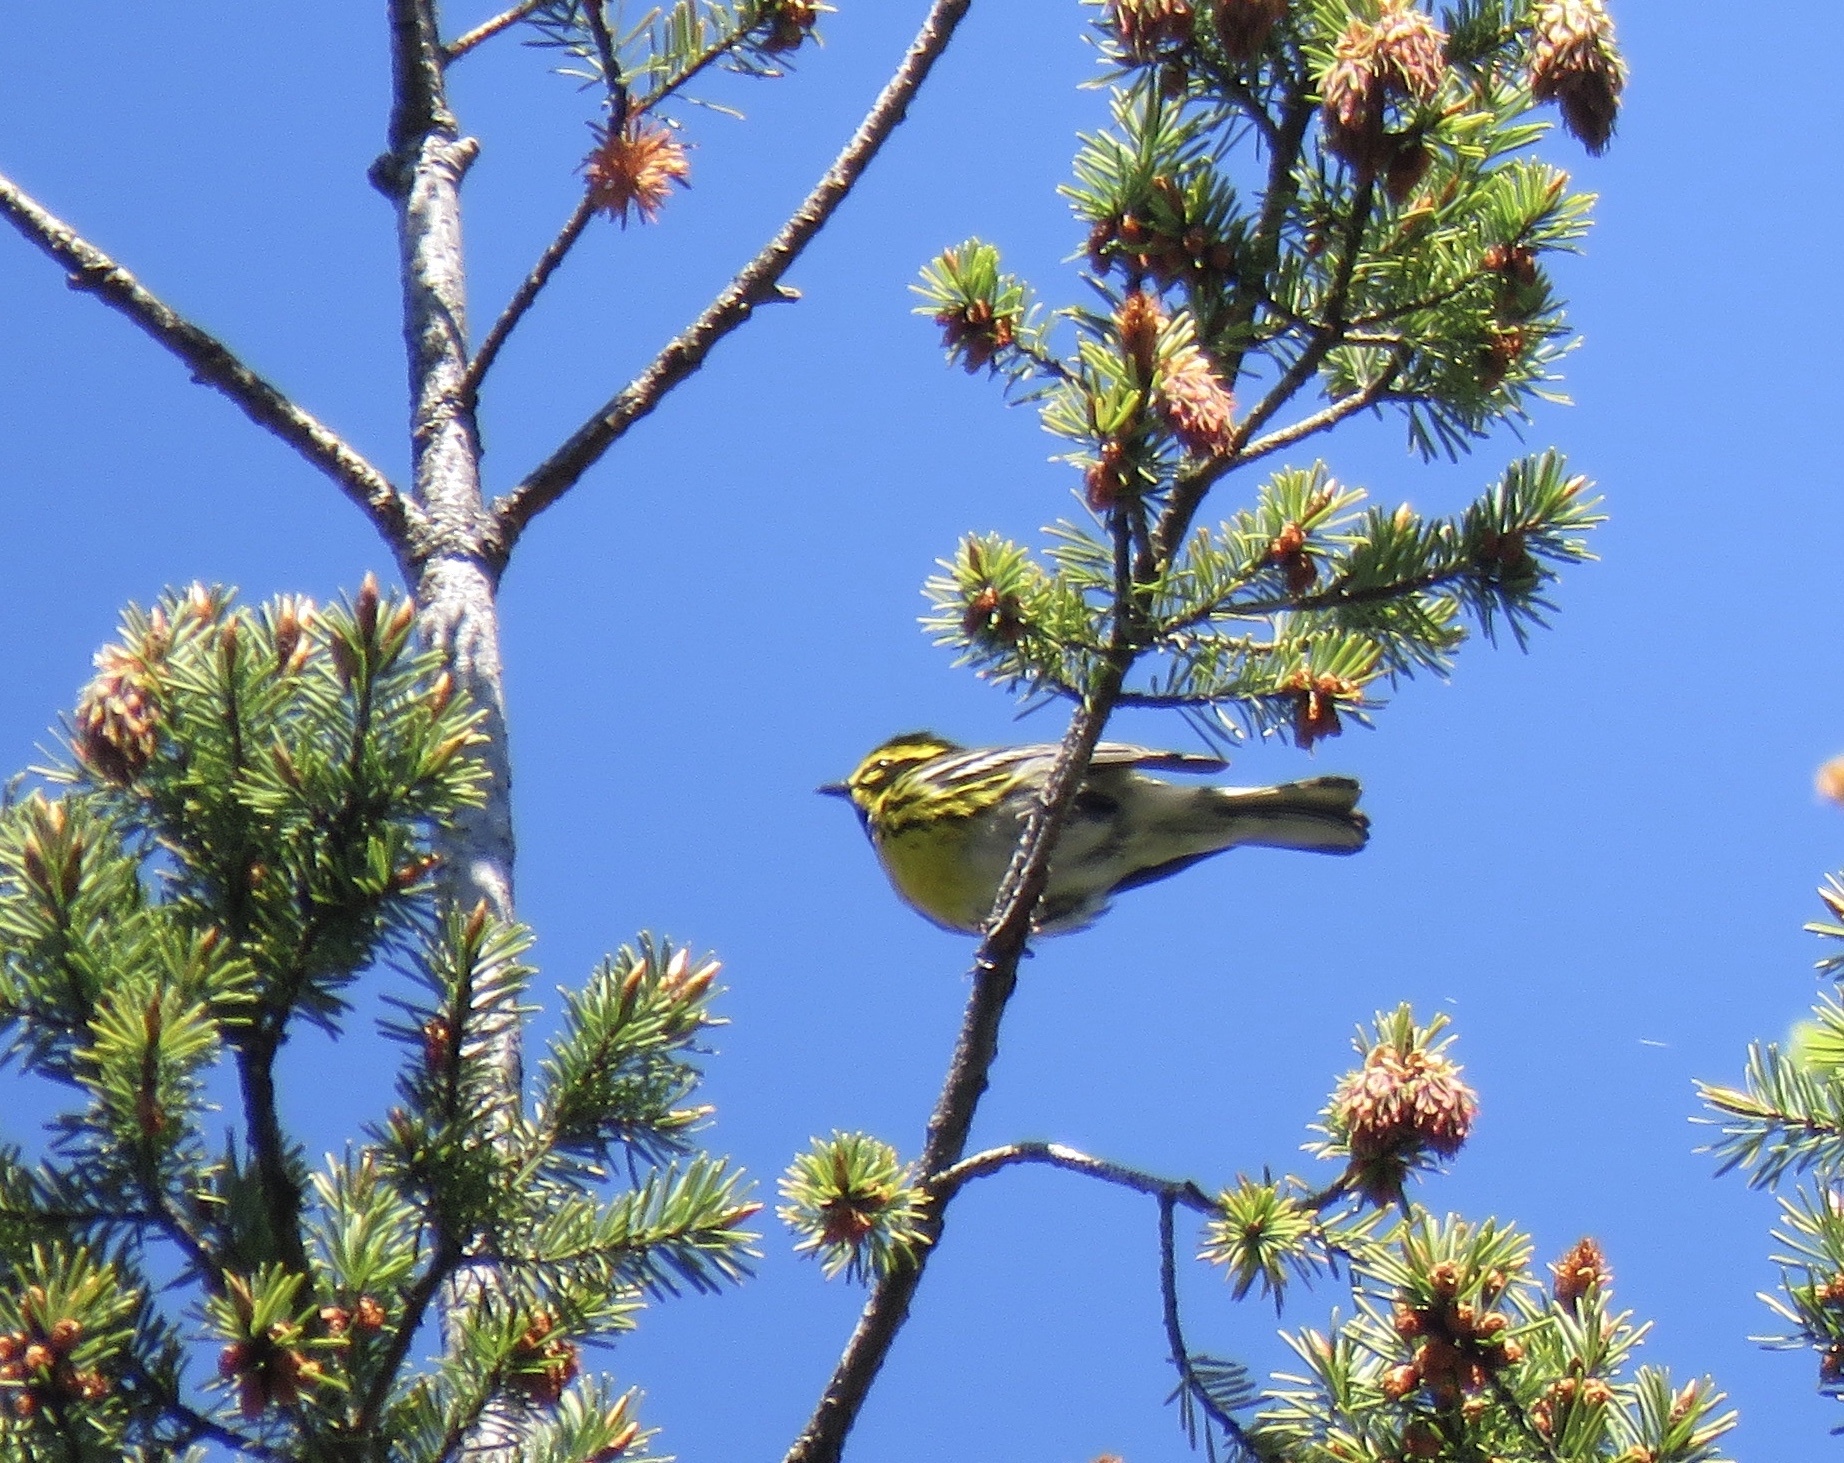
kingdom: Animalia
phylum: Chordata
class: Aves
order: Passeriformes
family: Parulidae
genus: Setophaga
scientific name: Setophaga townsendi
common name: Townsend's warbler
